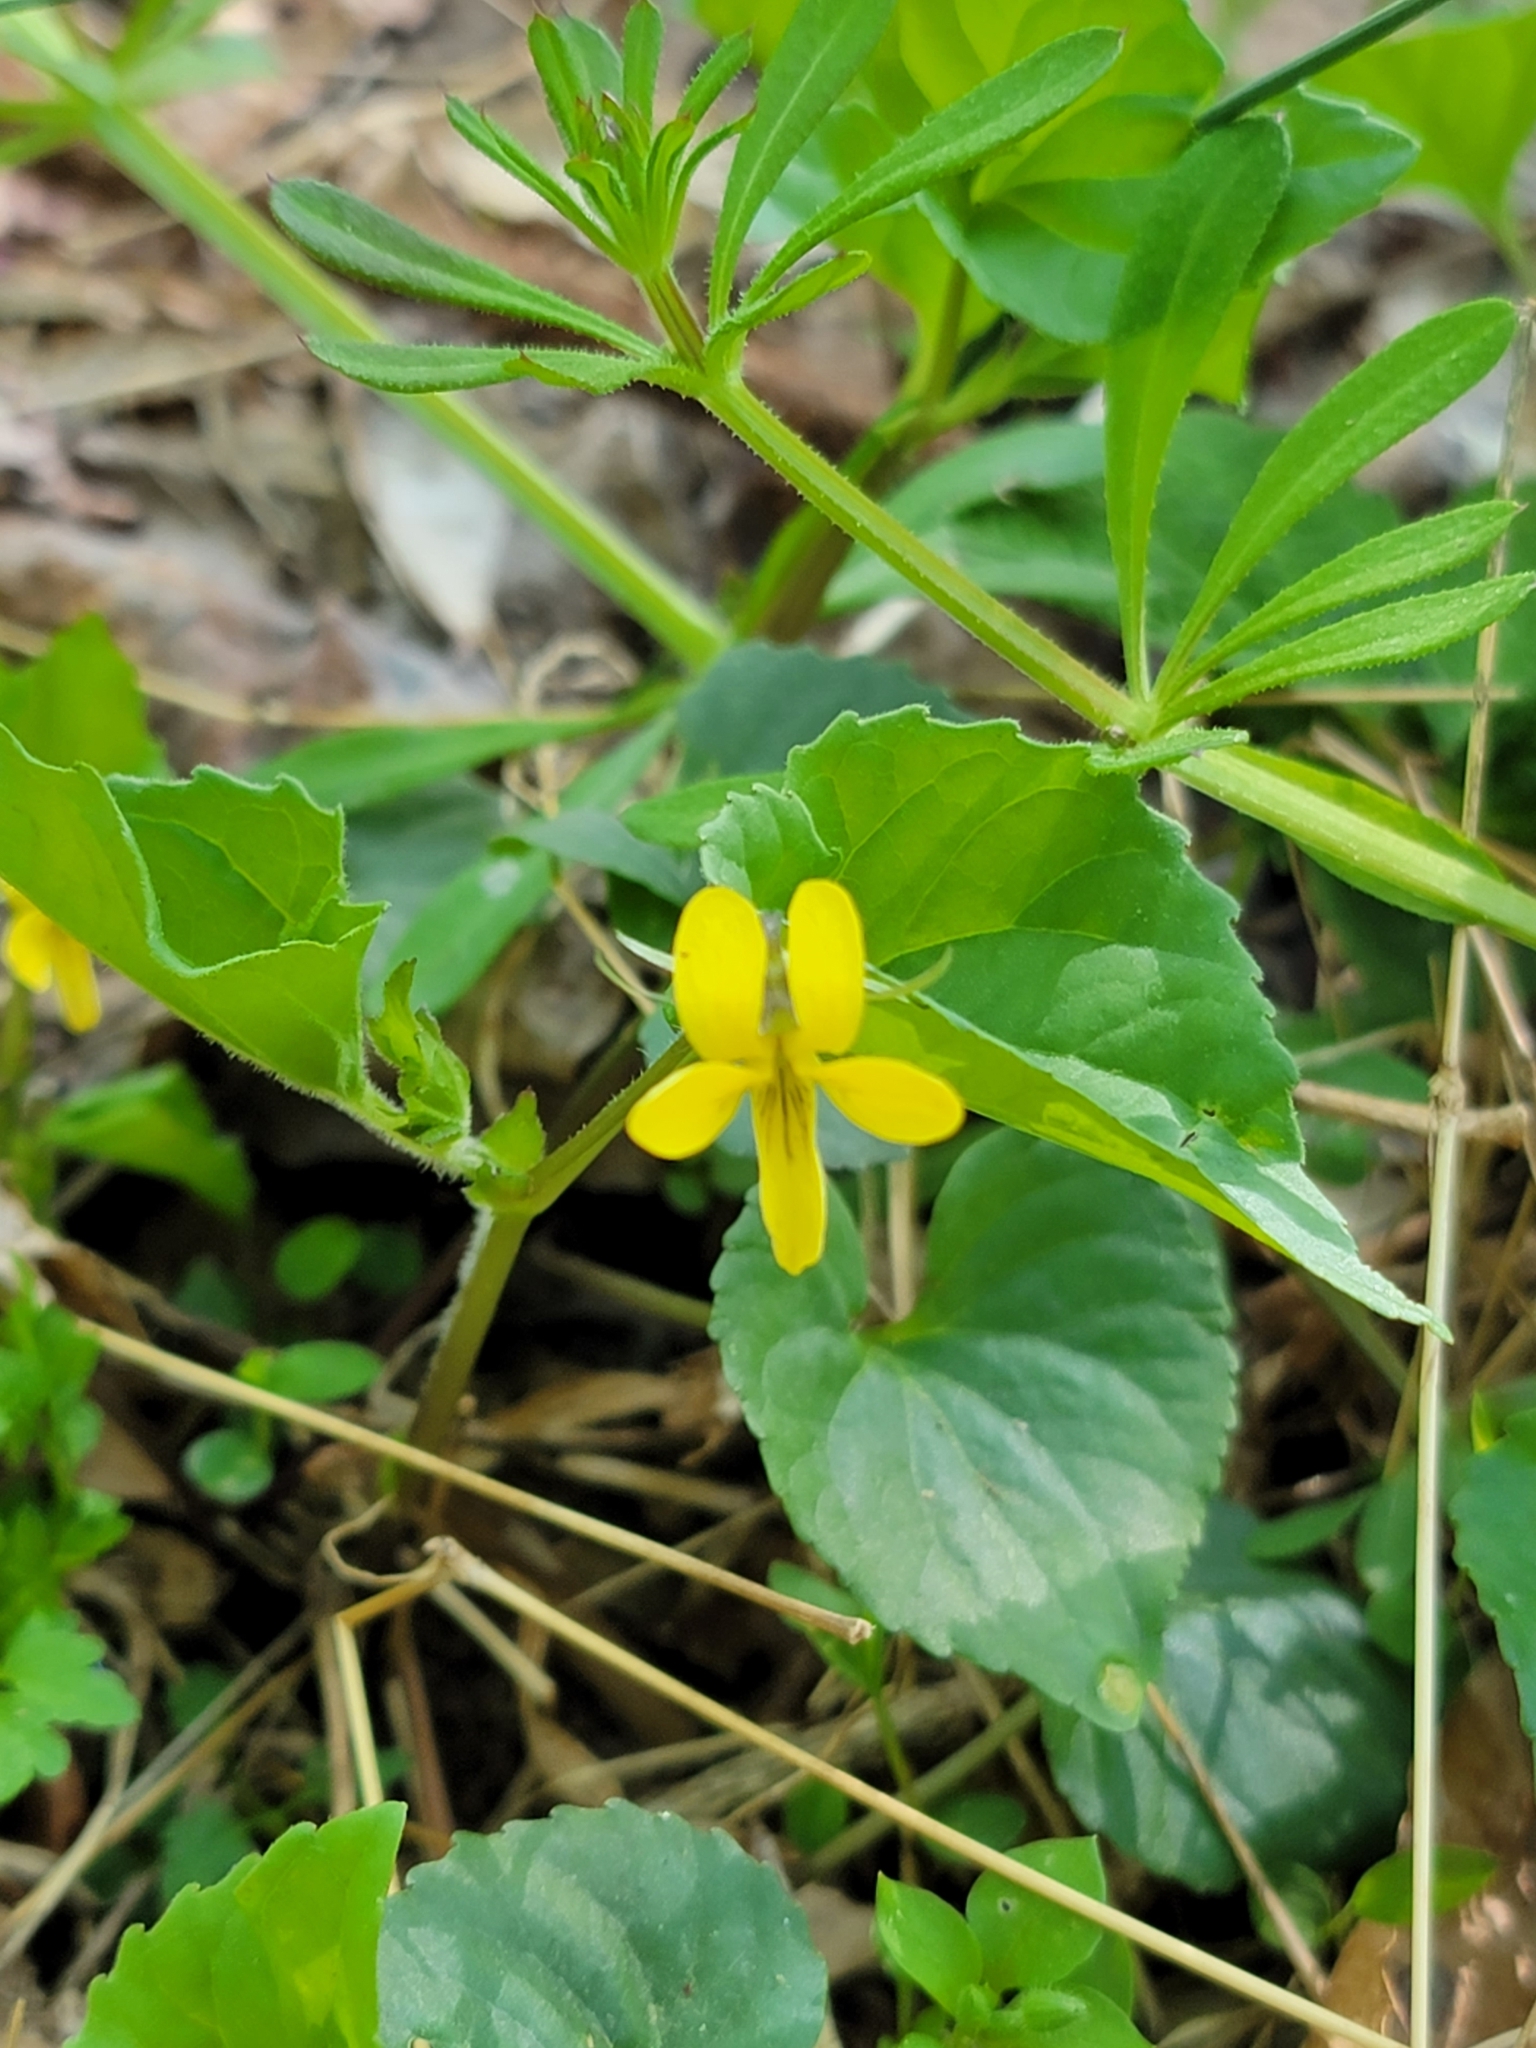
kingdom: Plantae
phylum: Tracheophyta
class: Magnoliopsida
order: Malpighiales
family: Violaceae
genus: Viola
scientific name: Viola eriocarpa
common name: Smooth yellow violet
